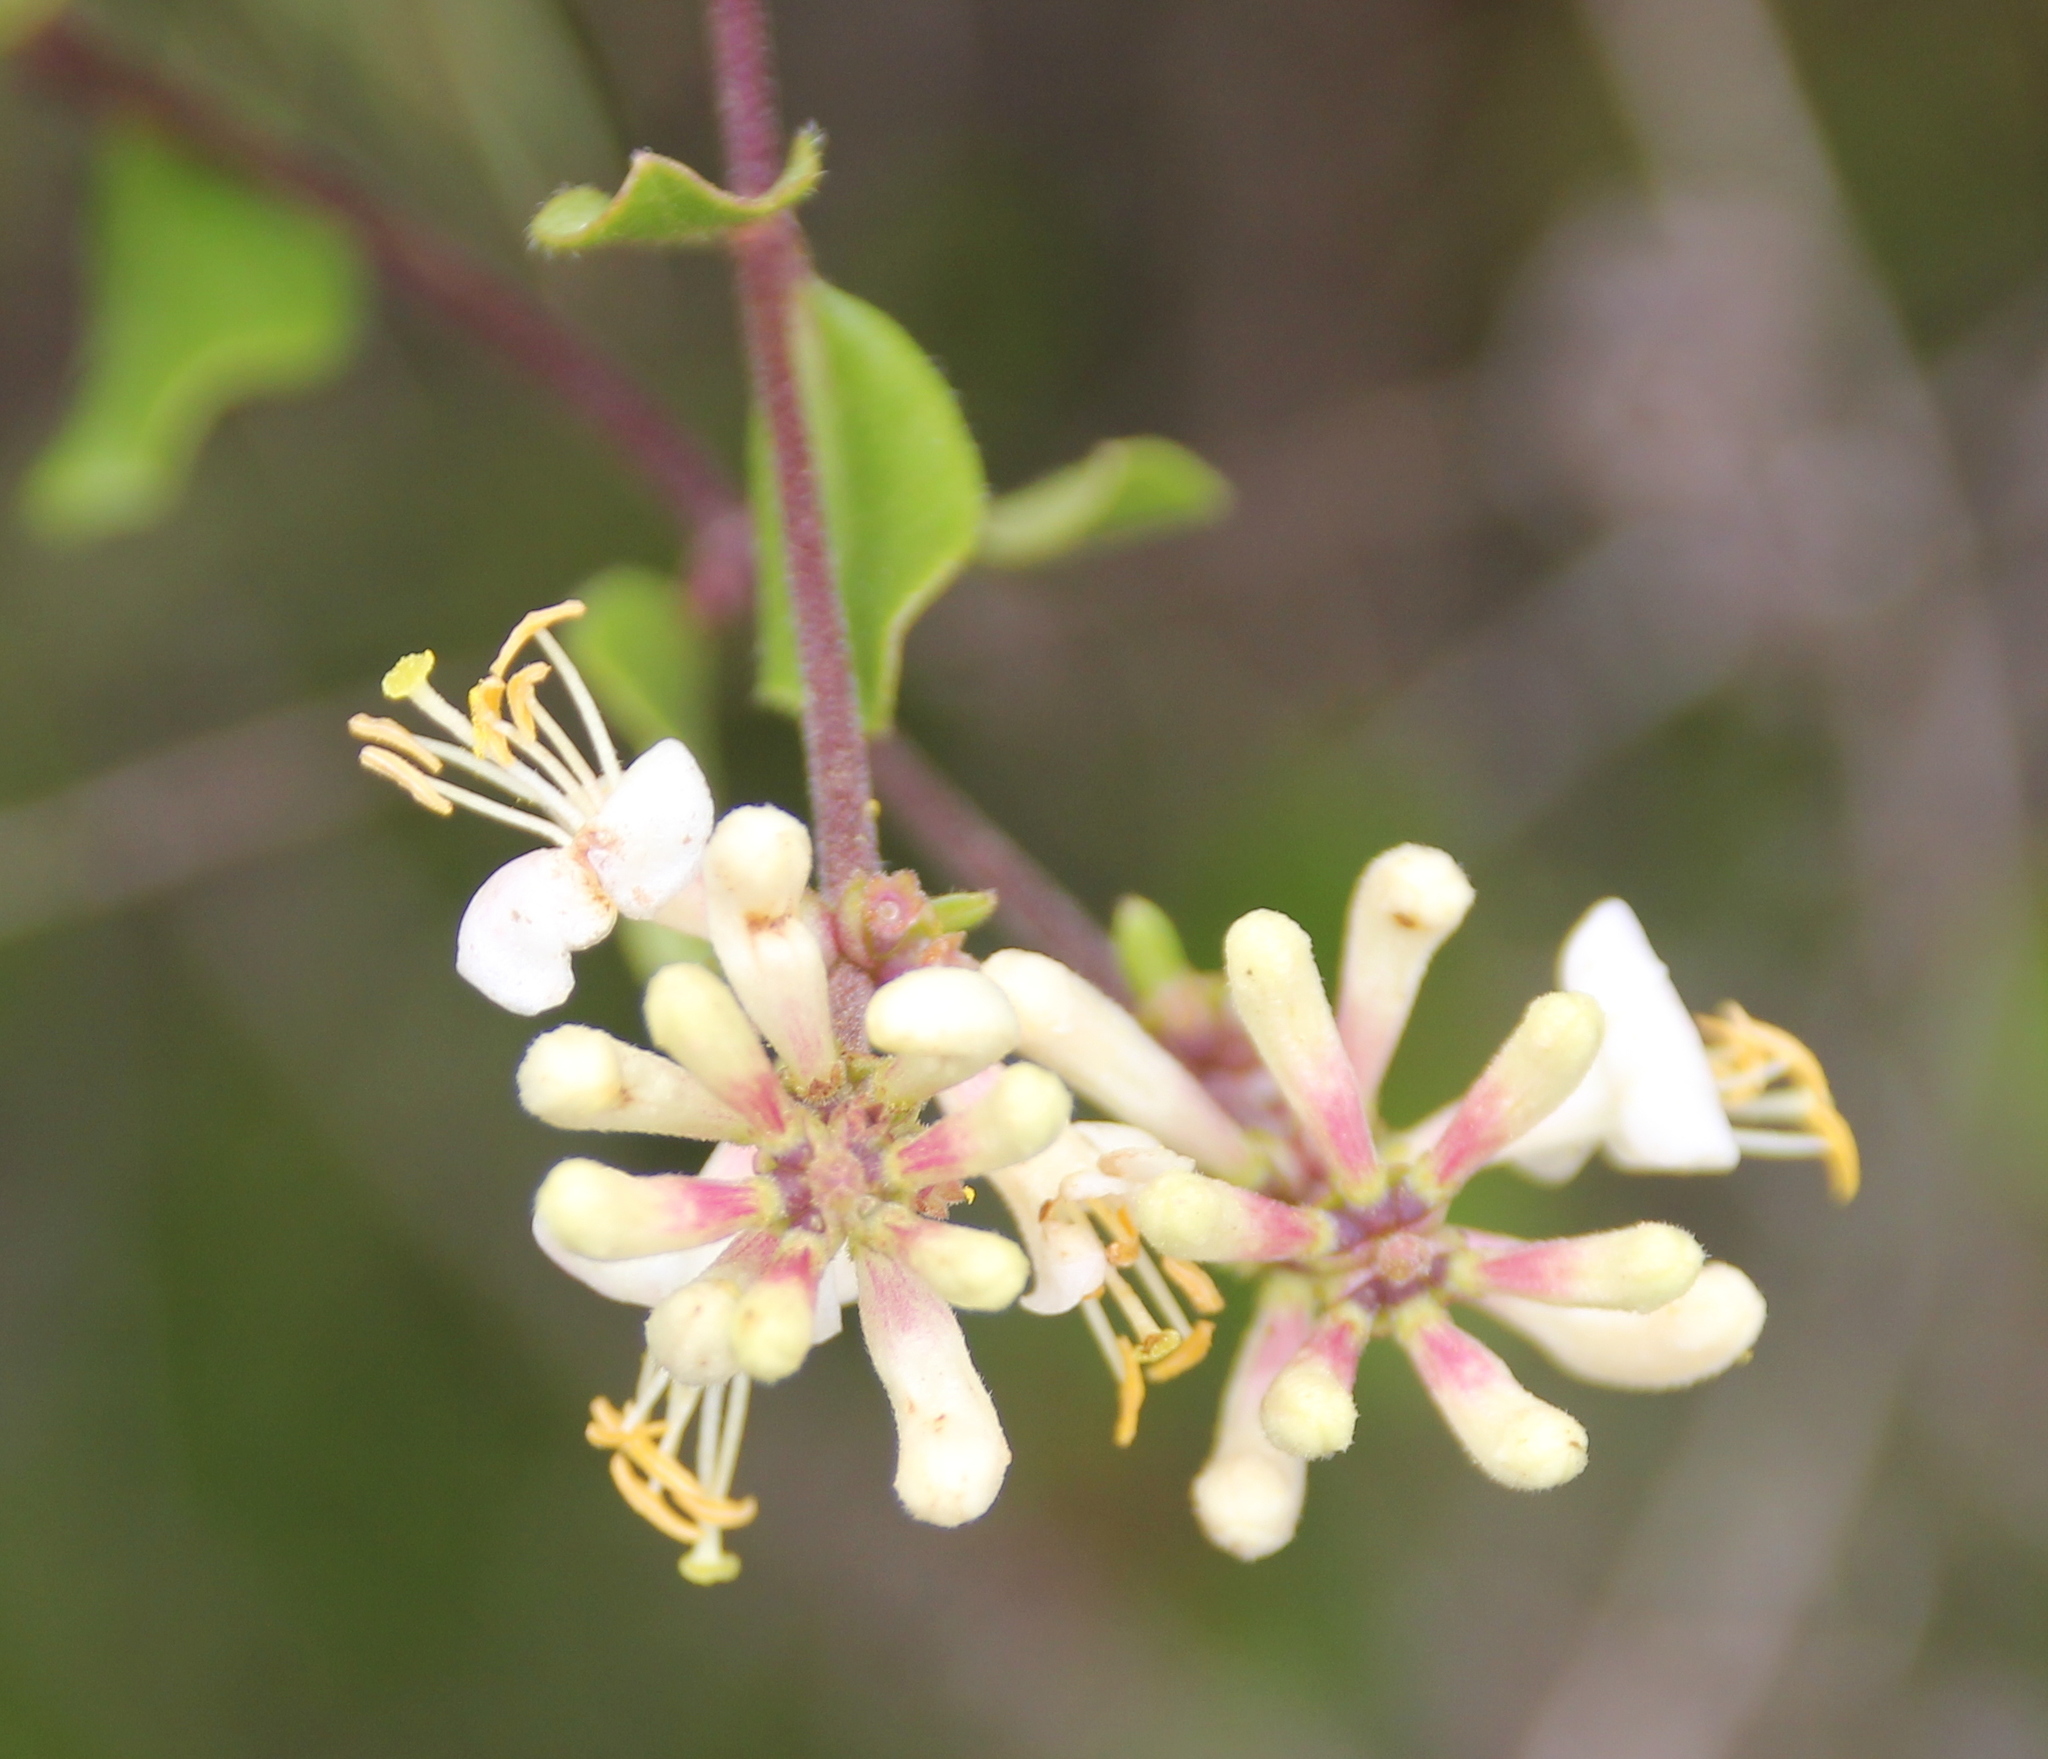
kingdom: Plantae
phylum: Tracheophyta
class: Magnoliopsida
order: Dipsacales
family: Caprifoliaceae
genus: Lonicera
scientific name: Lonicera subspicata
